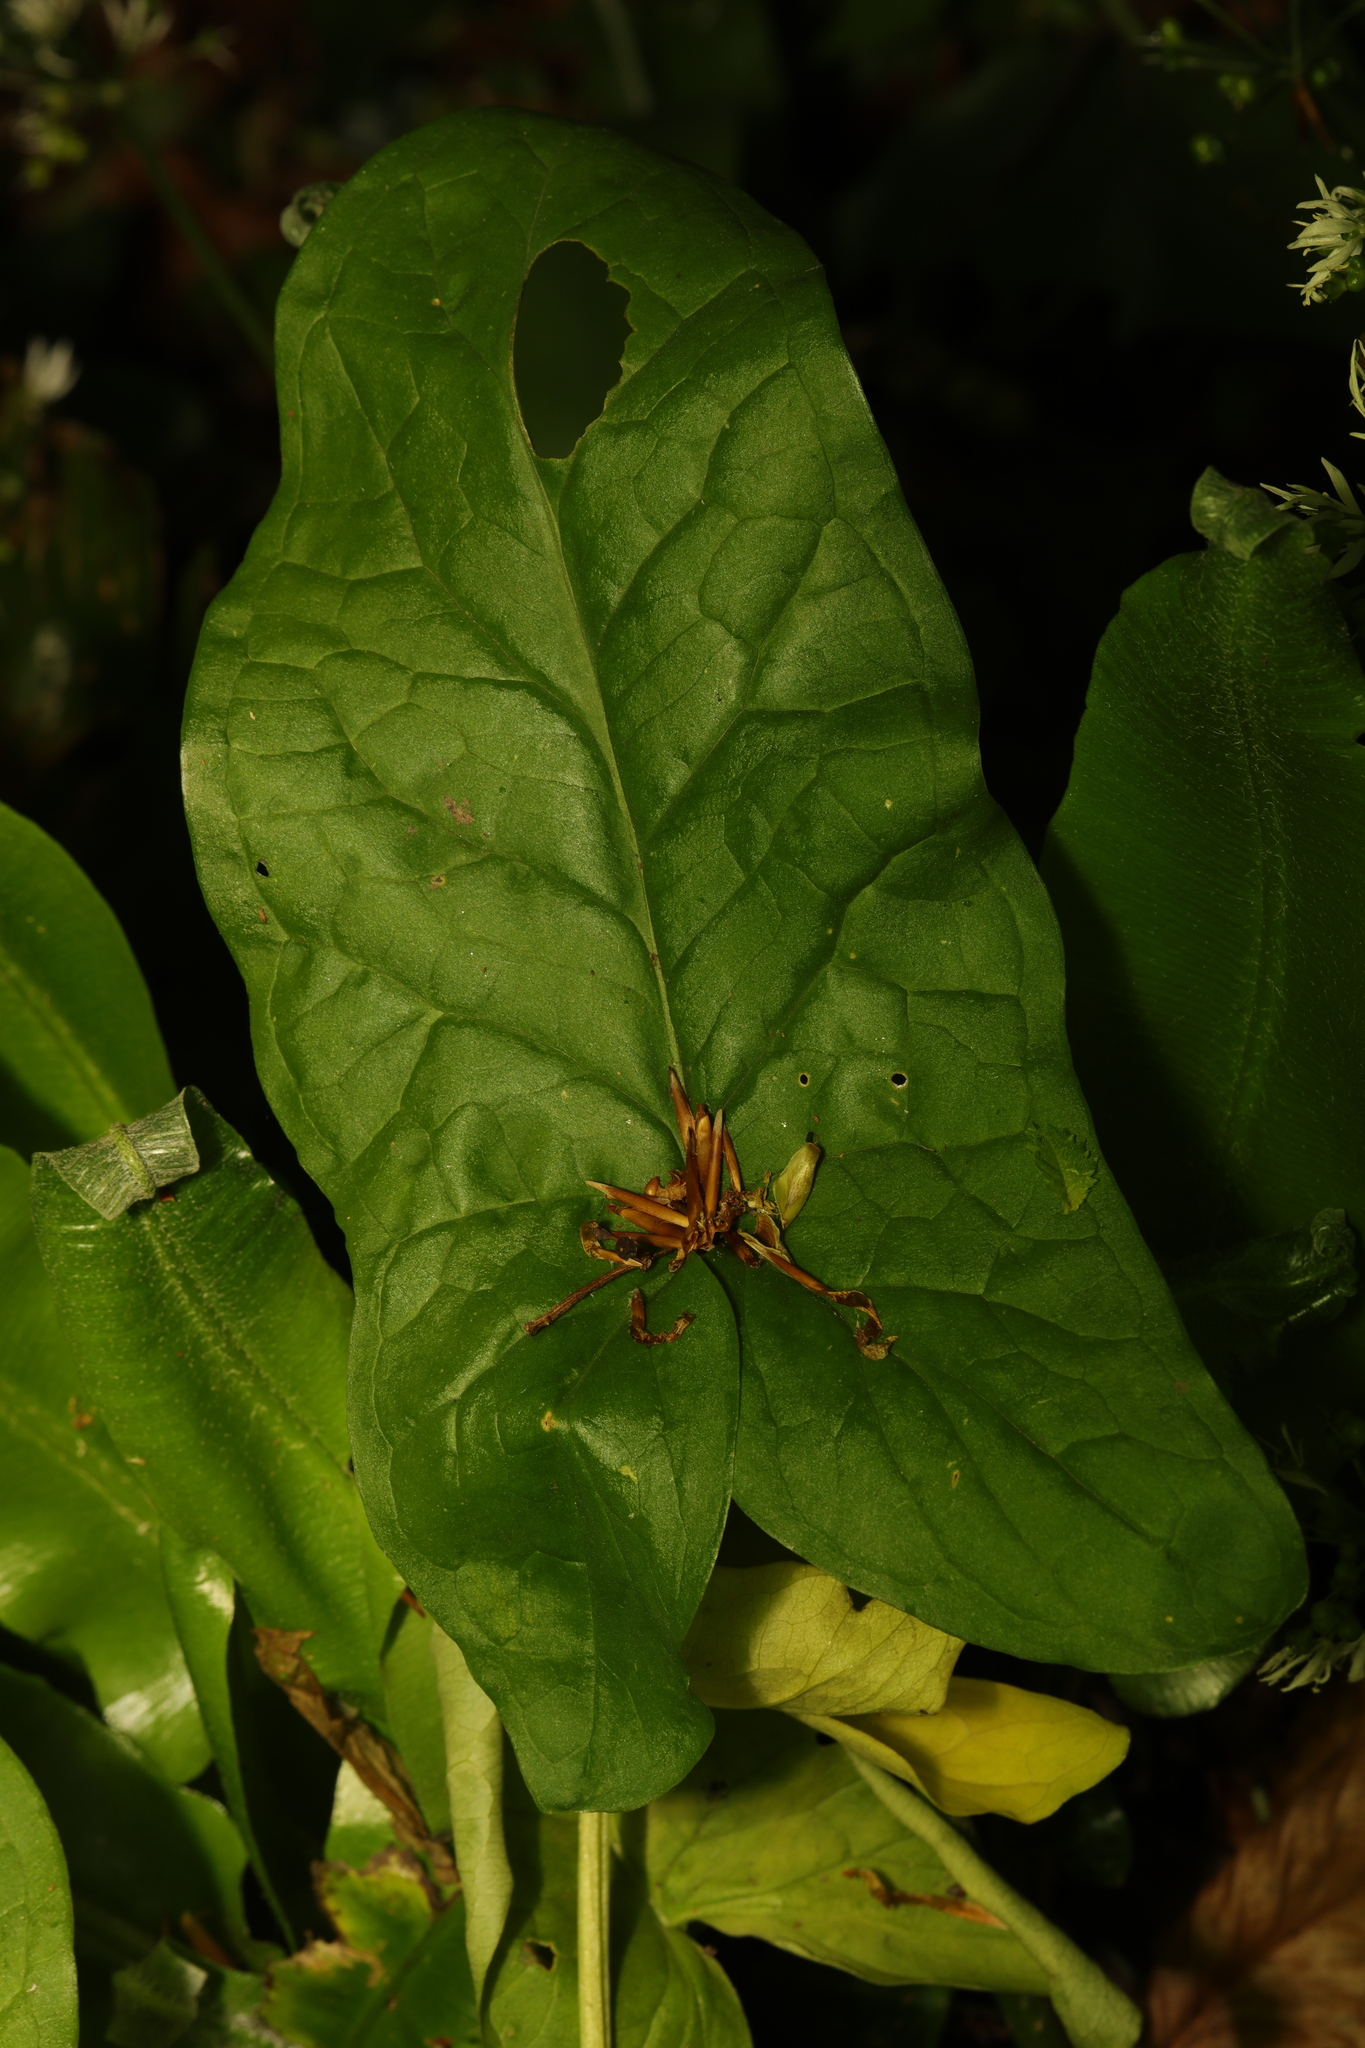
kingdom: Plantae
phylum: Tracheophyta
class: Liliopsida
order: Alismatales
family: Araceae
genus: Arum
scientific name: Arum maculatum
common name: Lords-and-ladies
